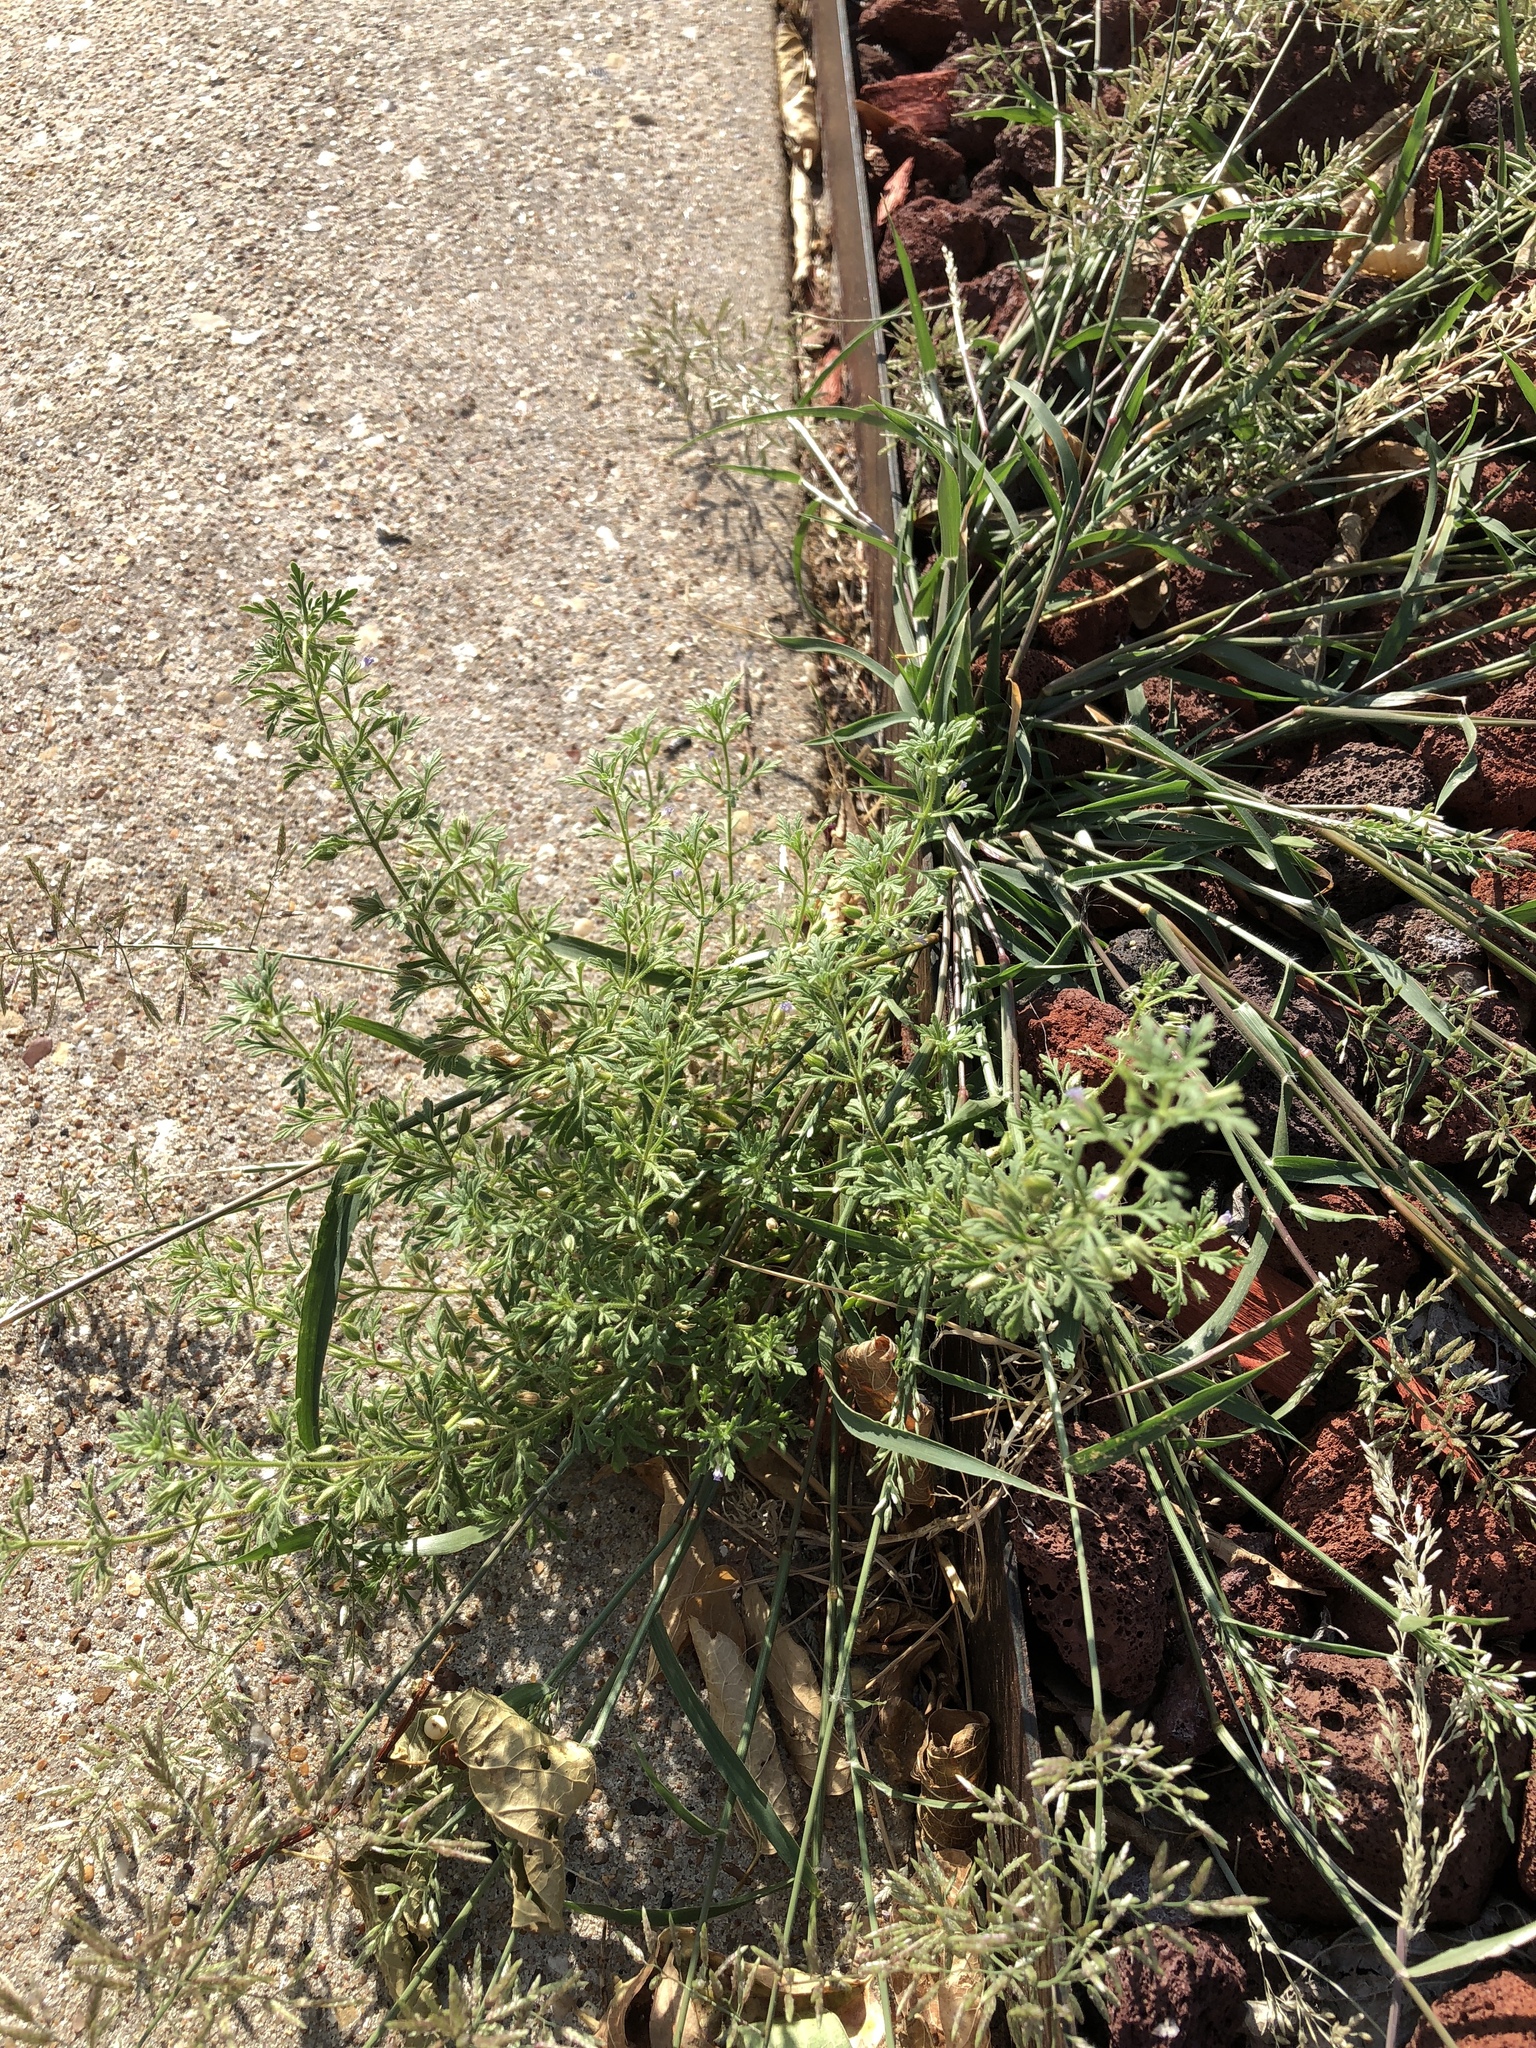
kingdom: Plantae
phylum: Tracheophyta
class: Magnoliopsida
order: Lamiales
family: Plantaginaceae
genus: Leucospora
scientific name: Leucospora multifida
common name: Narrow-leaf paleseed
